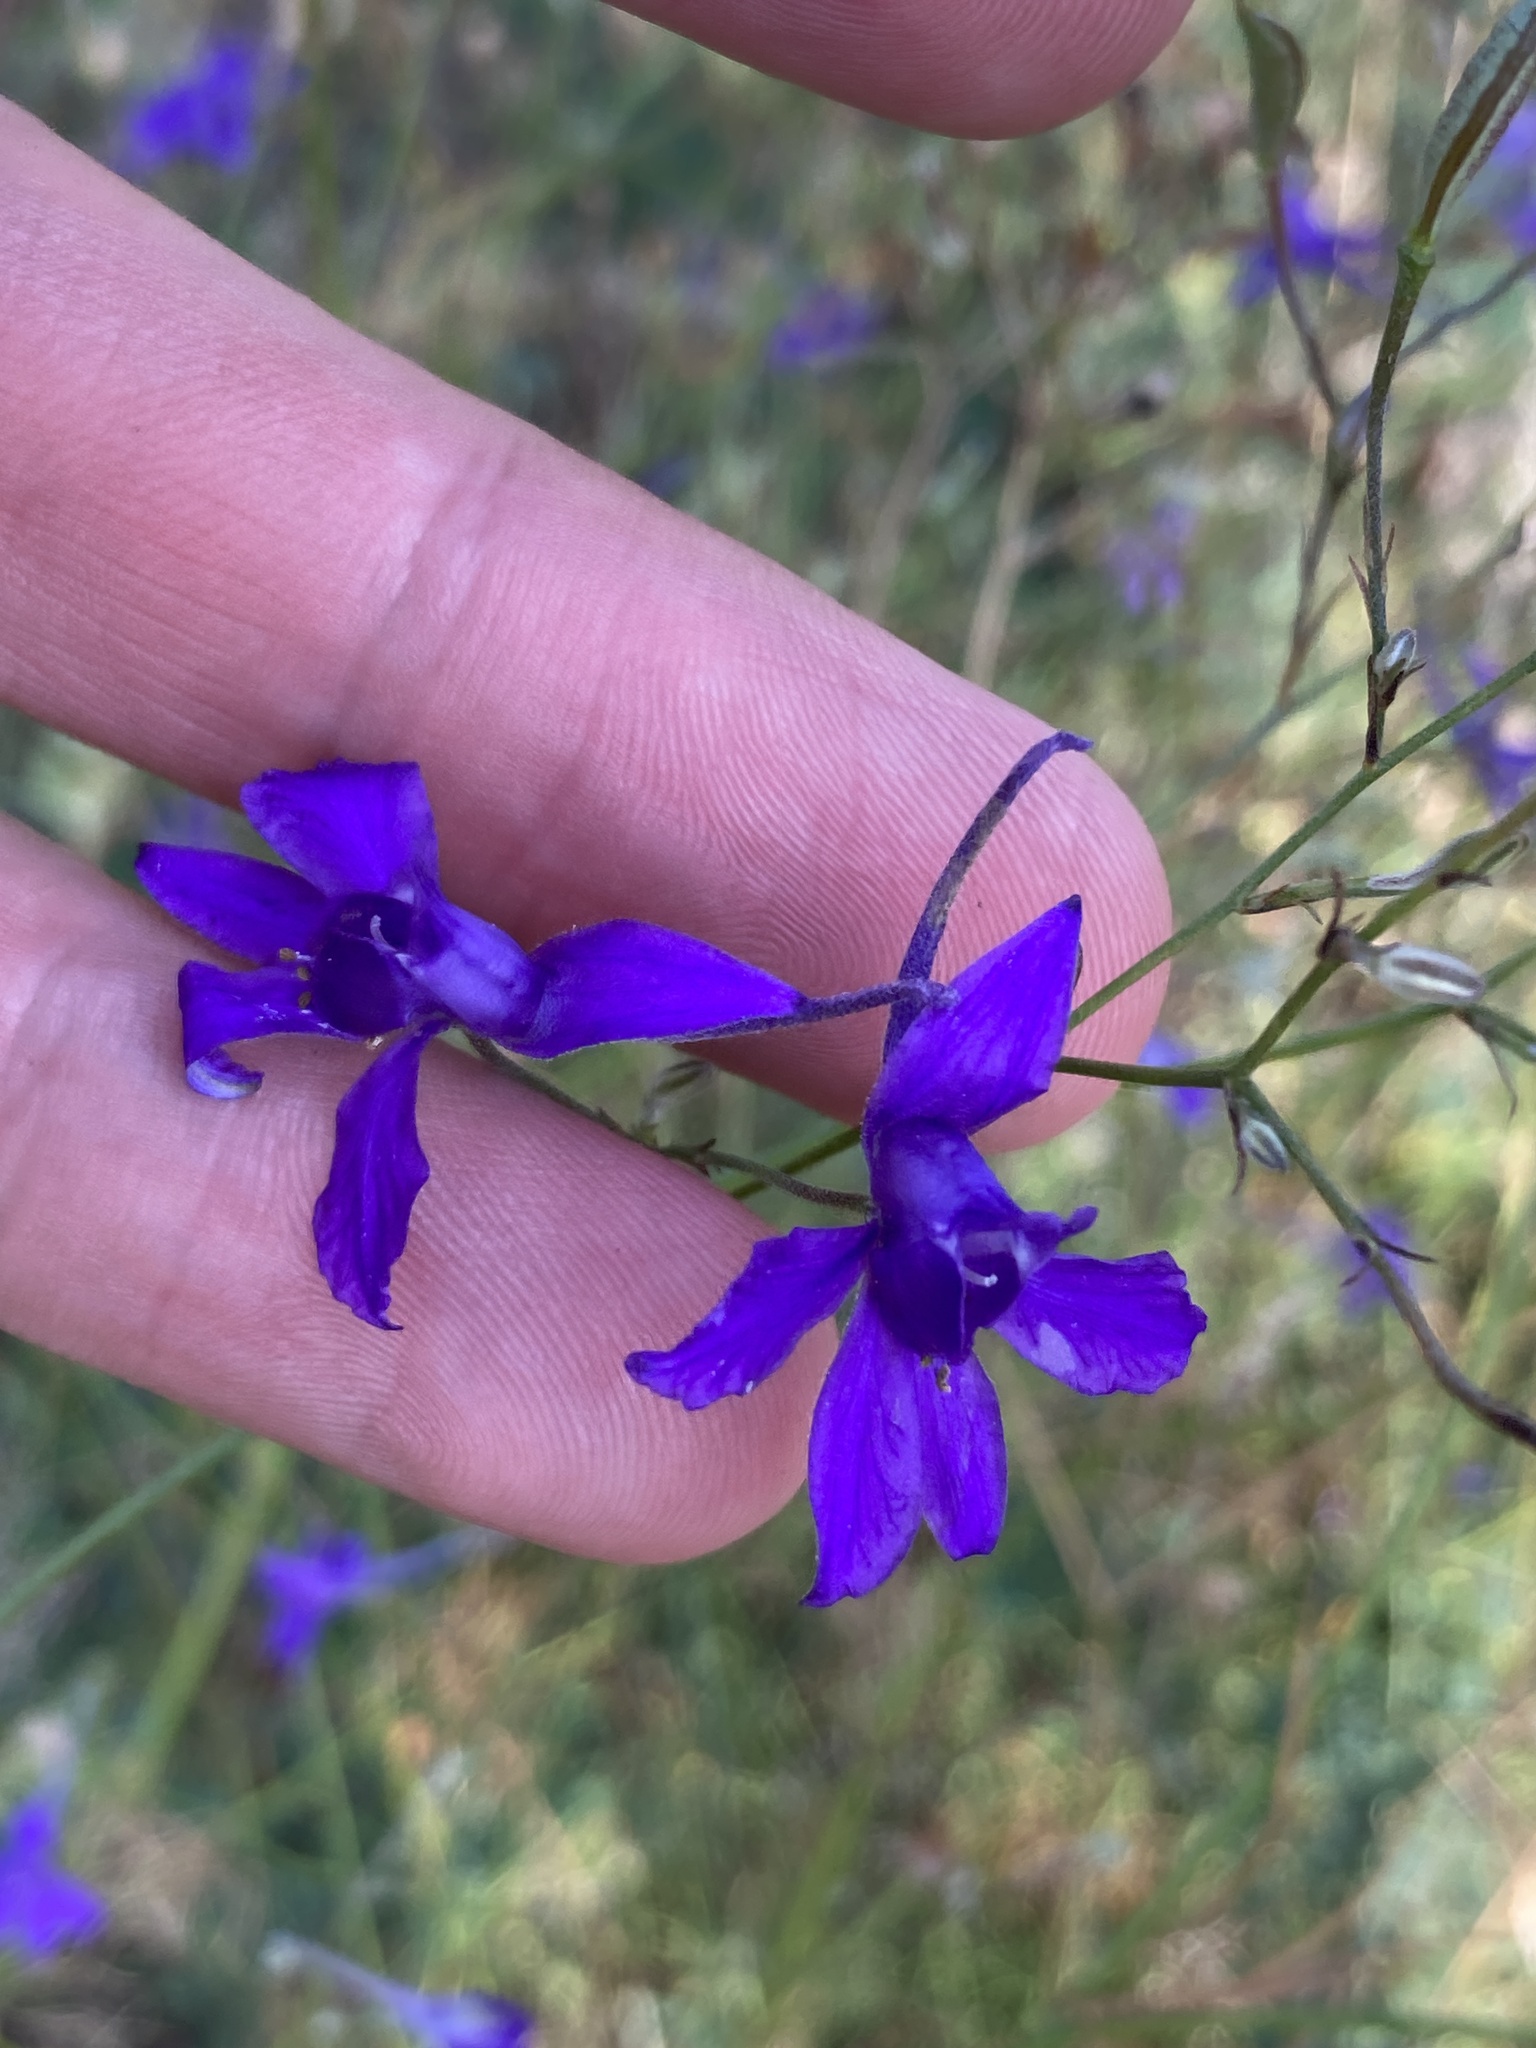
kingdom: Plantae
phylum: Tracheophyta
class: Magnoliopsida
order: Ranunculales
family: Ranunculaceae
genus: Delphinium
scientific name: Delphinium consolida
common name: Branching larkspur
